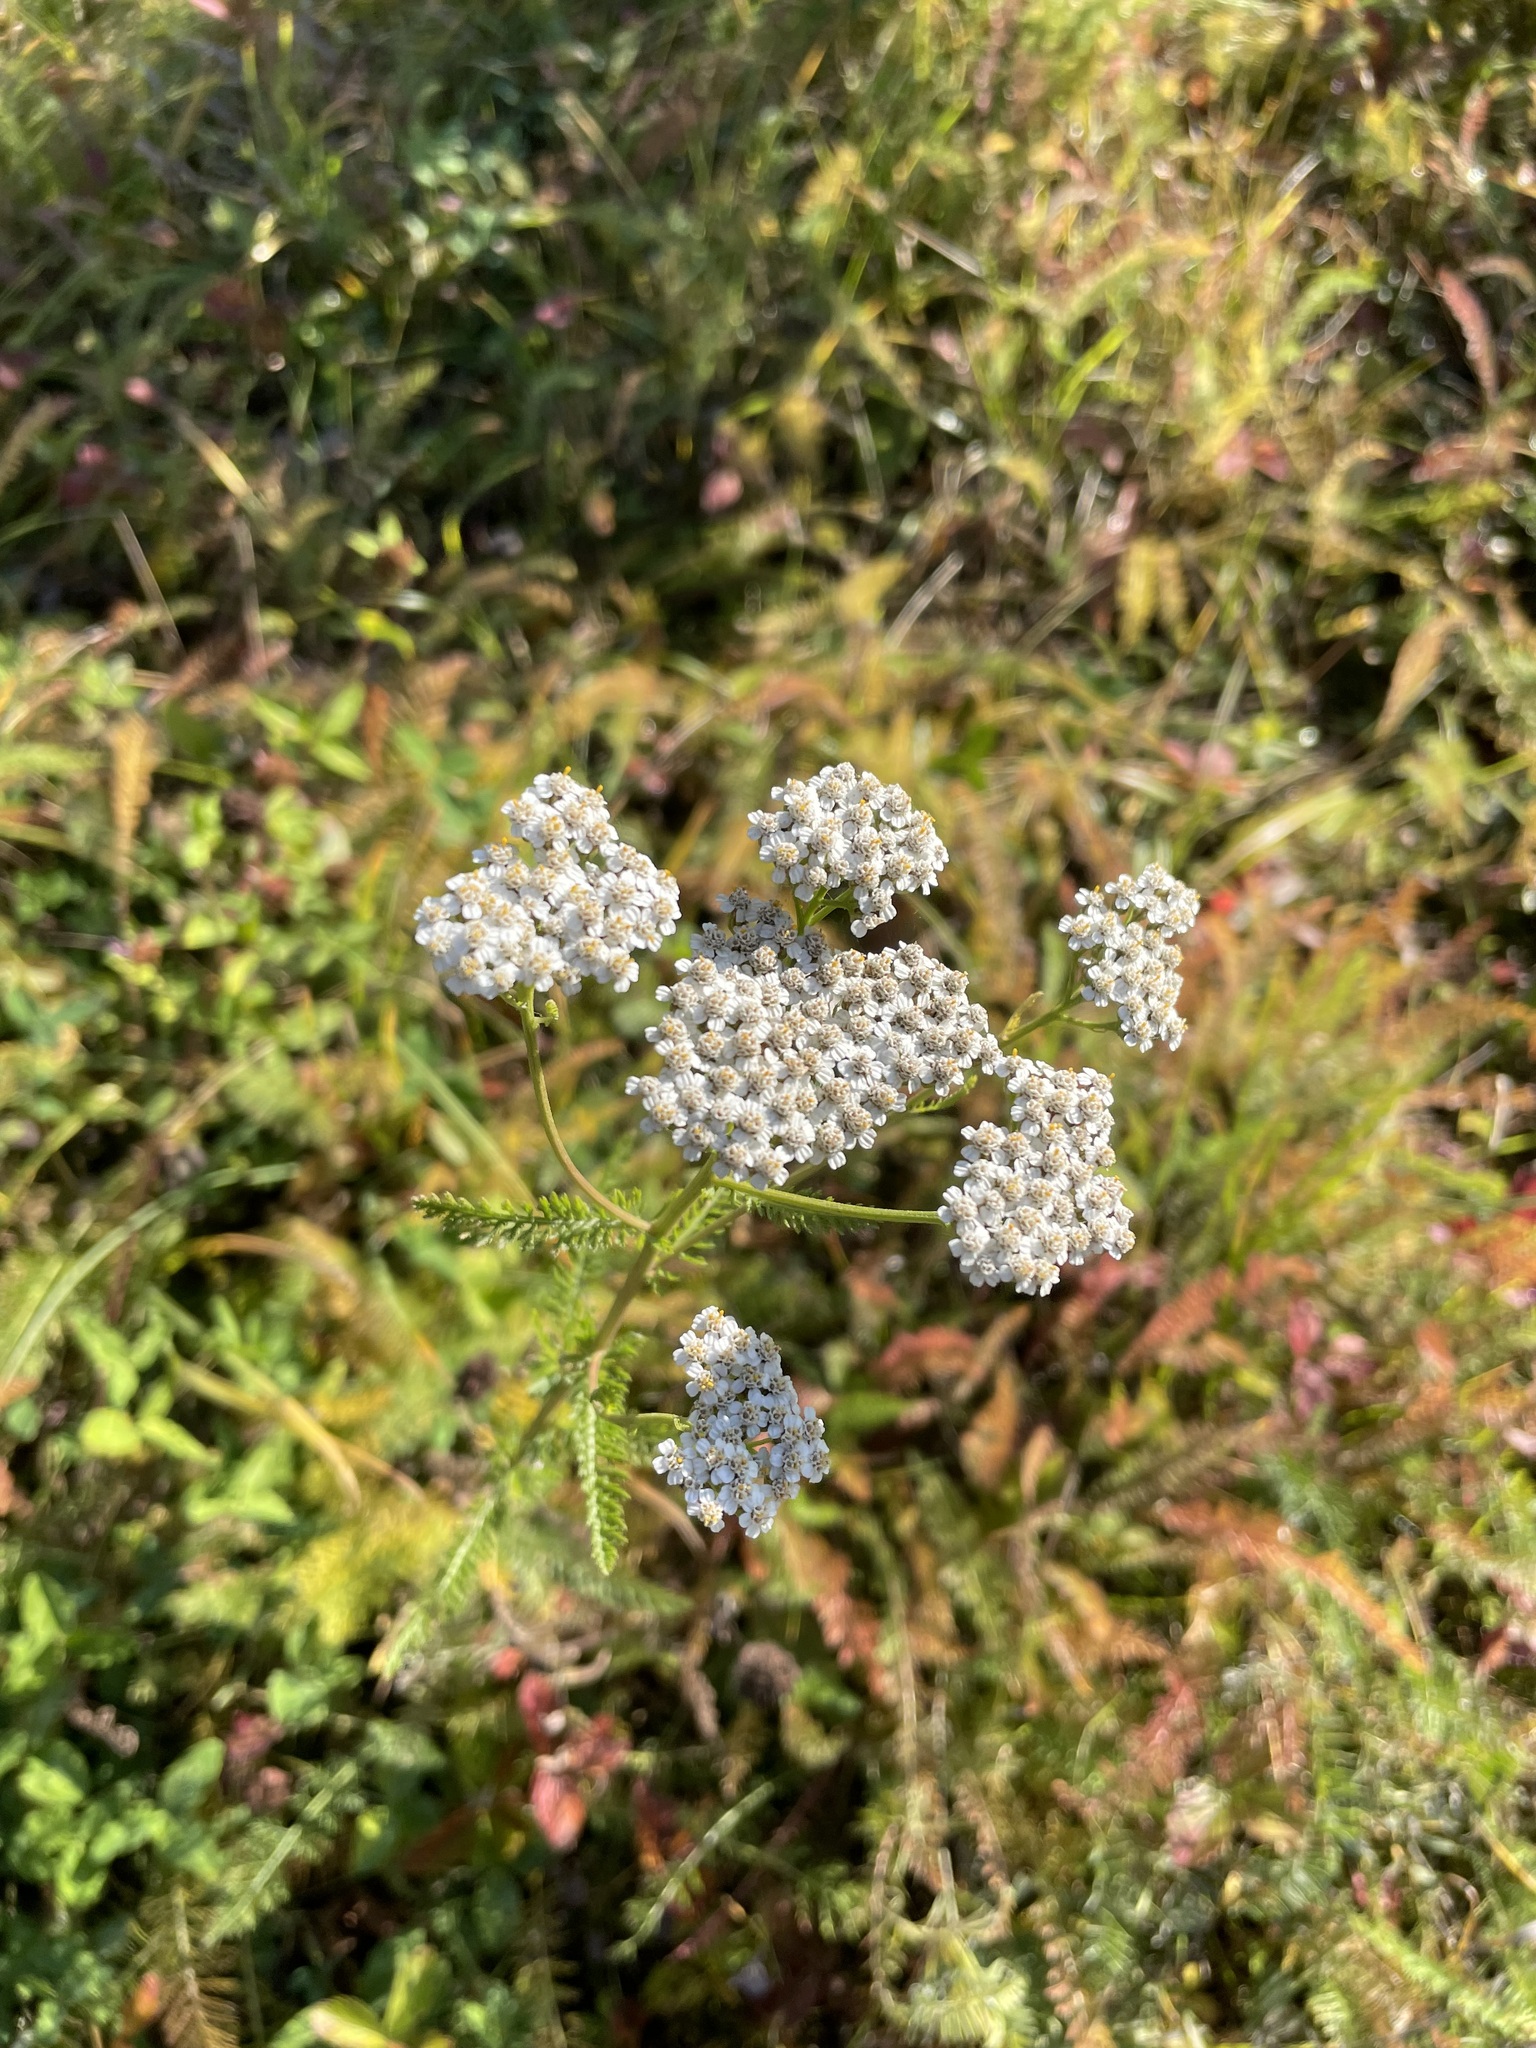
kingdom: Plantae
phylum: Tracheophyta
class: Magnoliopsida
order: Asterales
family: Asteraceae
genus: Achillea
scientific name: Achillea millefolium
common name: Yarrow
